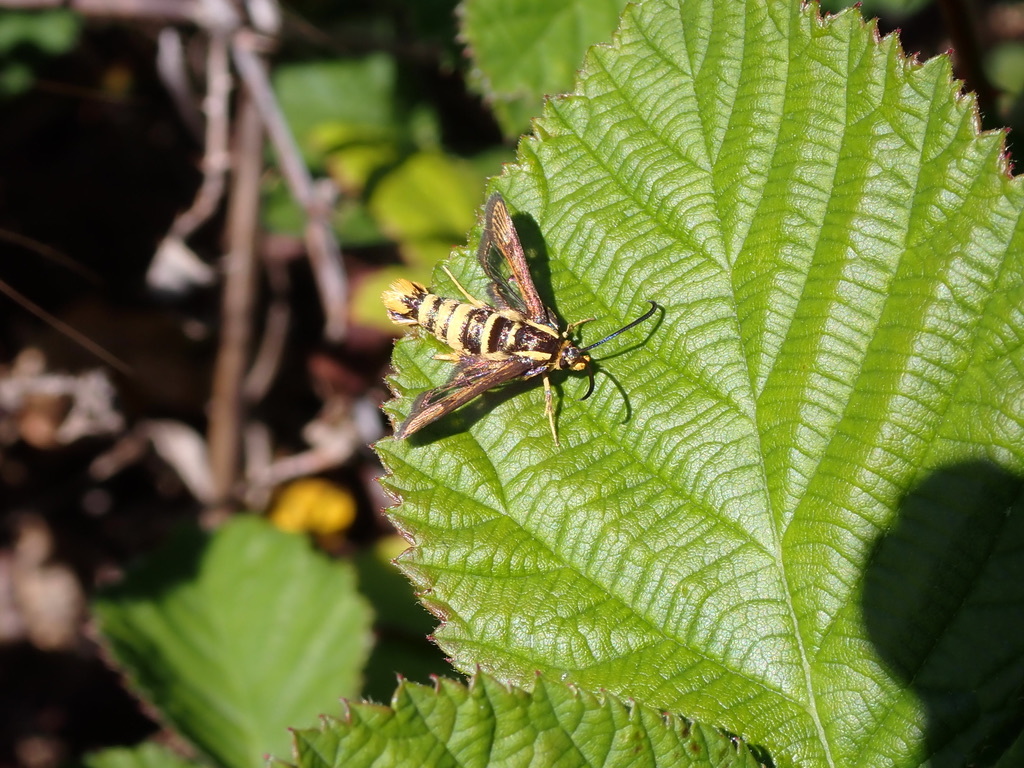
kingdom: Animalia
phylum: Arthropoda
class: Insecta
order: Lepidoptera
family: Sesiidae
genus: Synanthedon
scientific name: Synanthedon bibionipennis
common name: Strawberry crown moth
